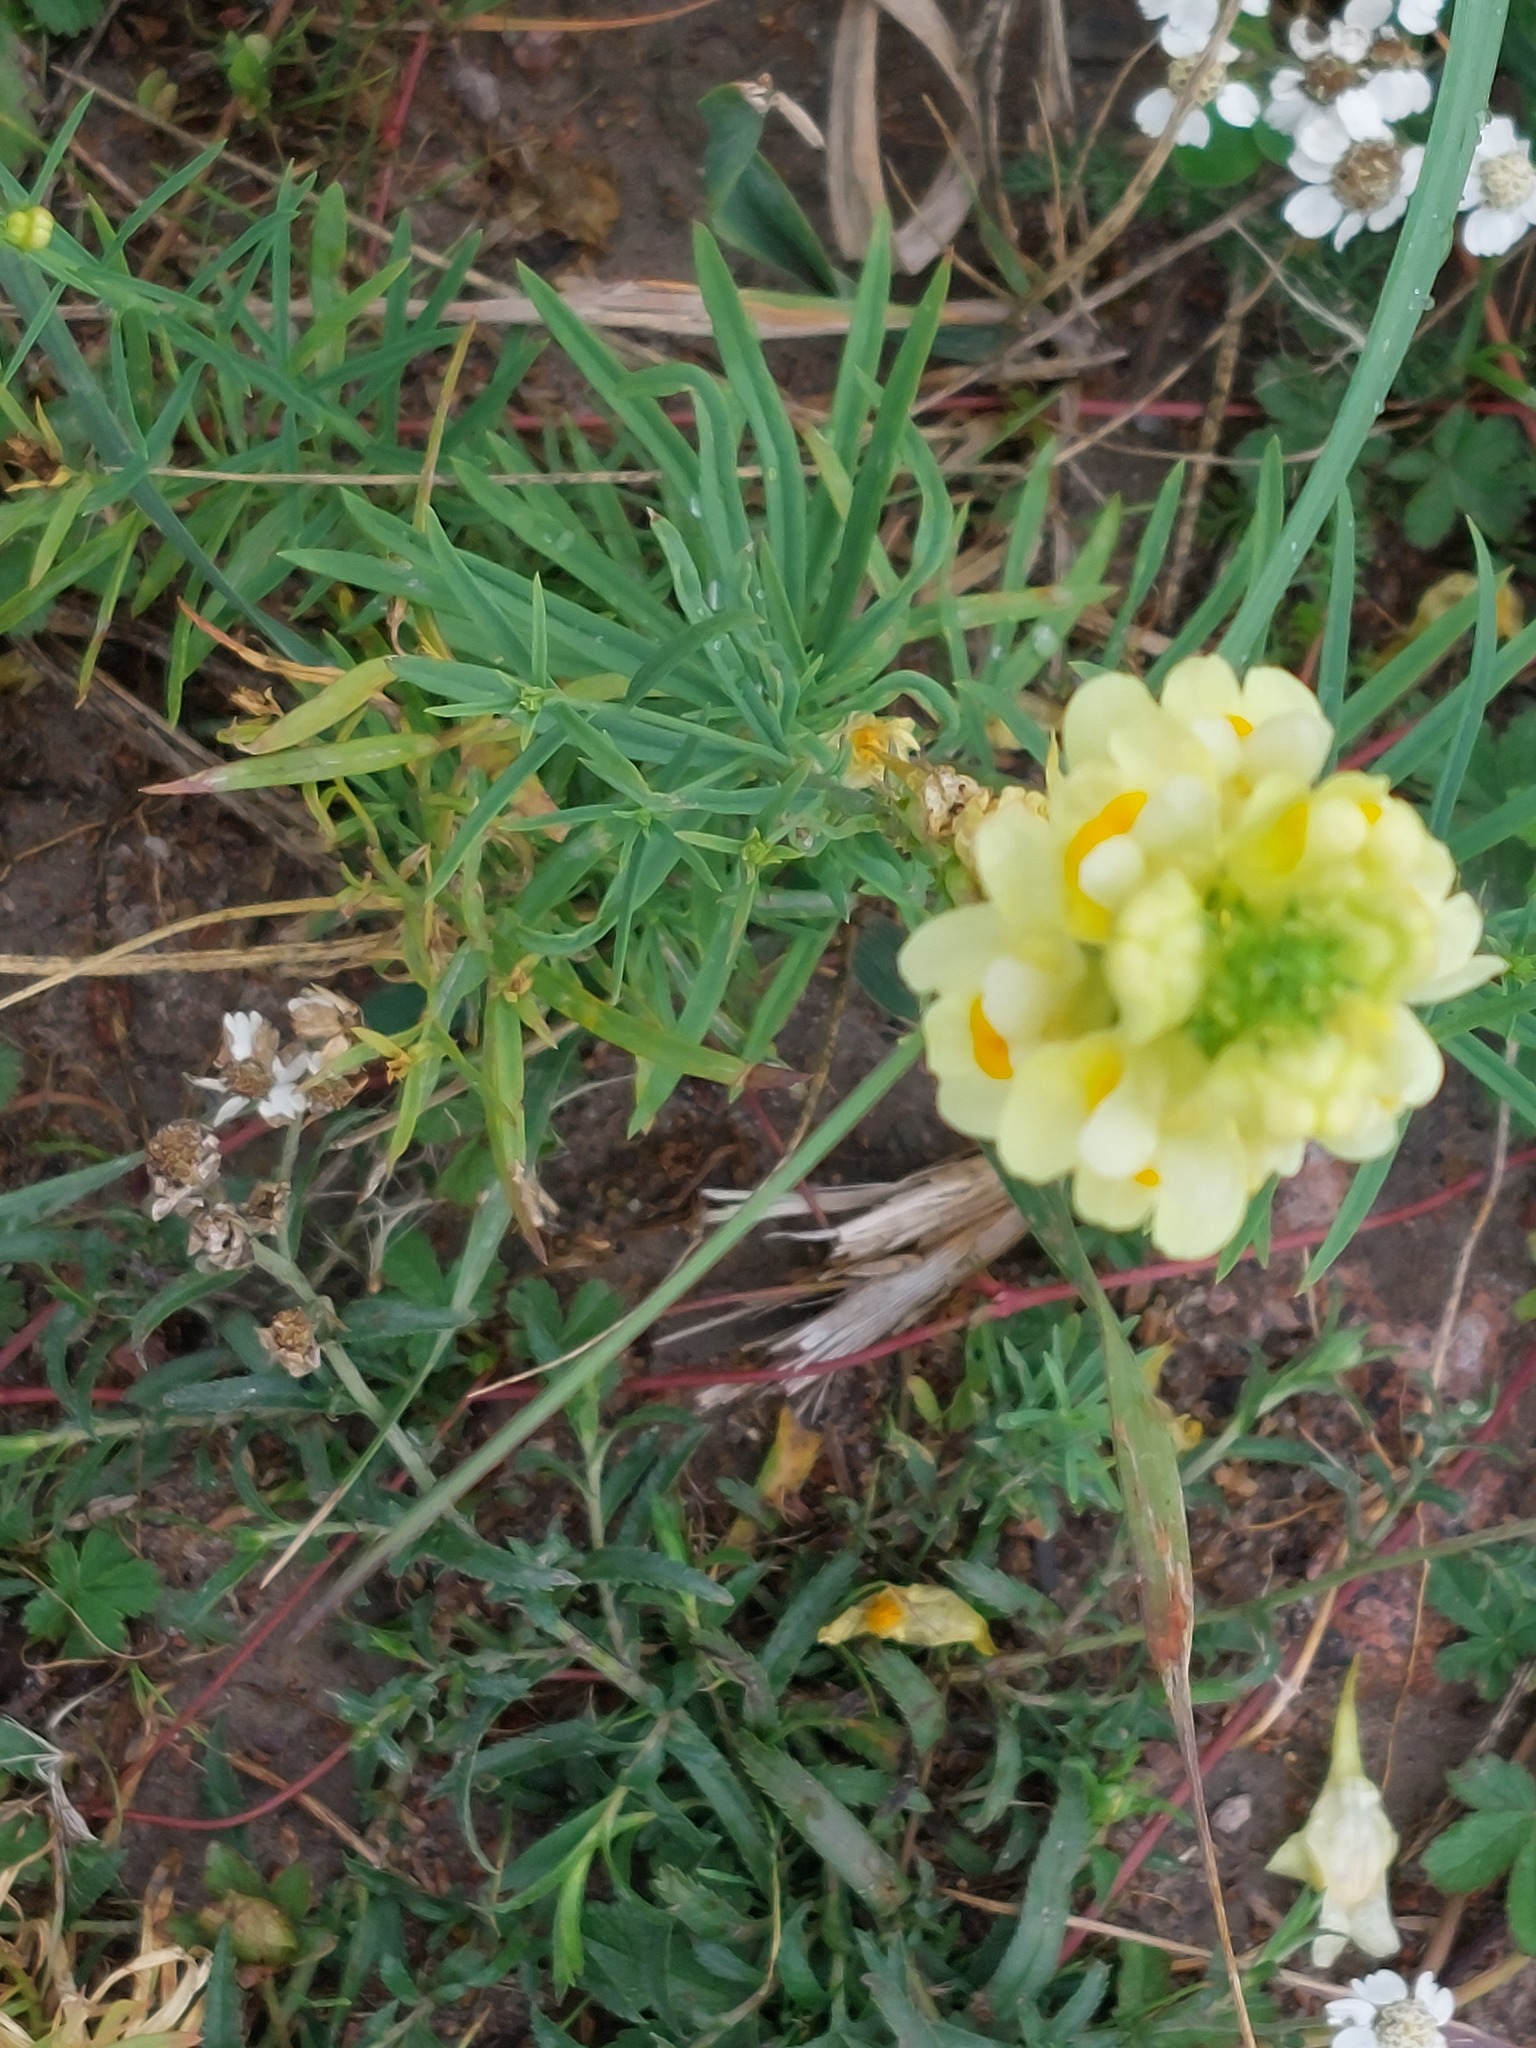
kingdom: Plantae
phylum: Tracheophyta
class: Magnoliopsida
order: Lamiales
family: Plantaginaceae
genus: Linaria
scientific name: Linaria vulgaris
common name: Butter and eggs
